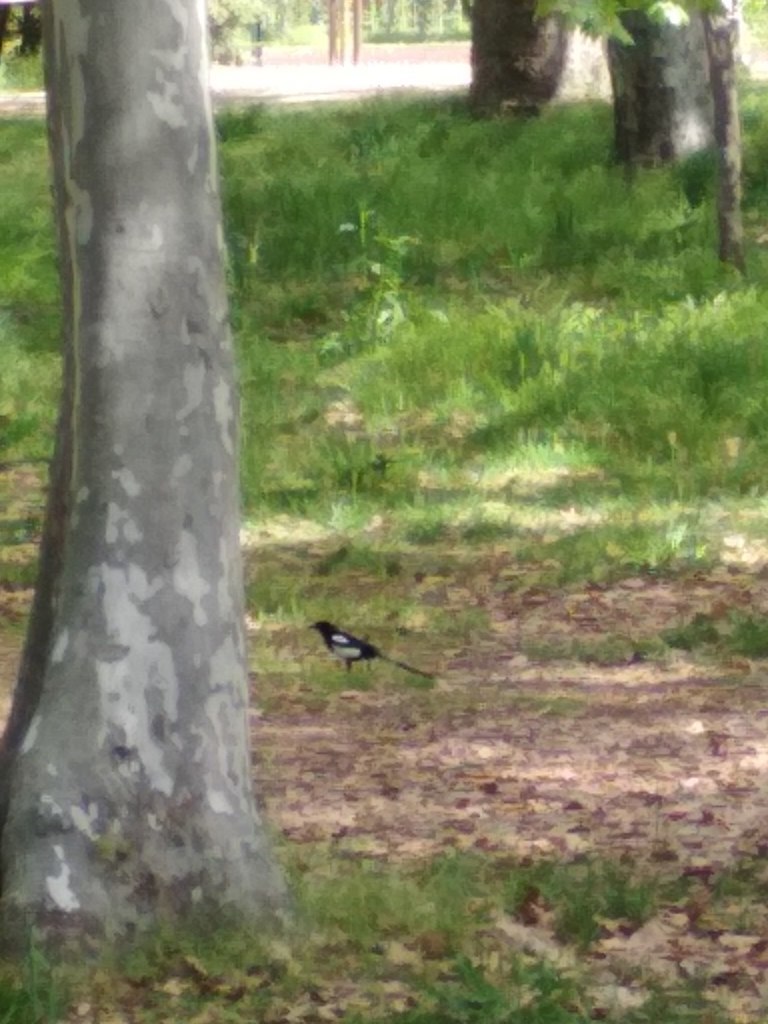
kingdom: Animalia
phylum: Chordata
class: Aves
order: Passeriformes
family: Corvidae
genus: Pica
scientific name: Pica pica
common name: Eurasian magpie
